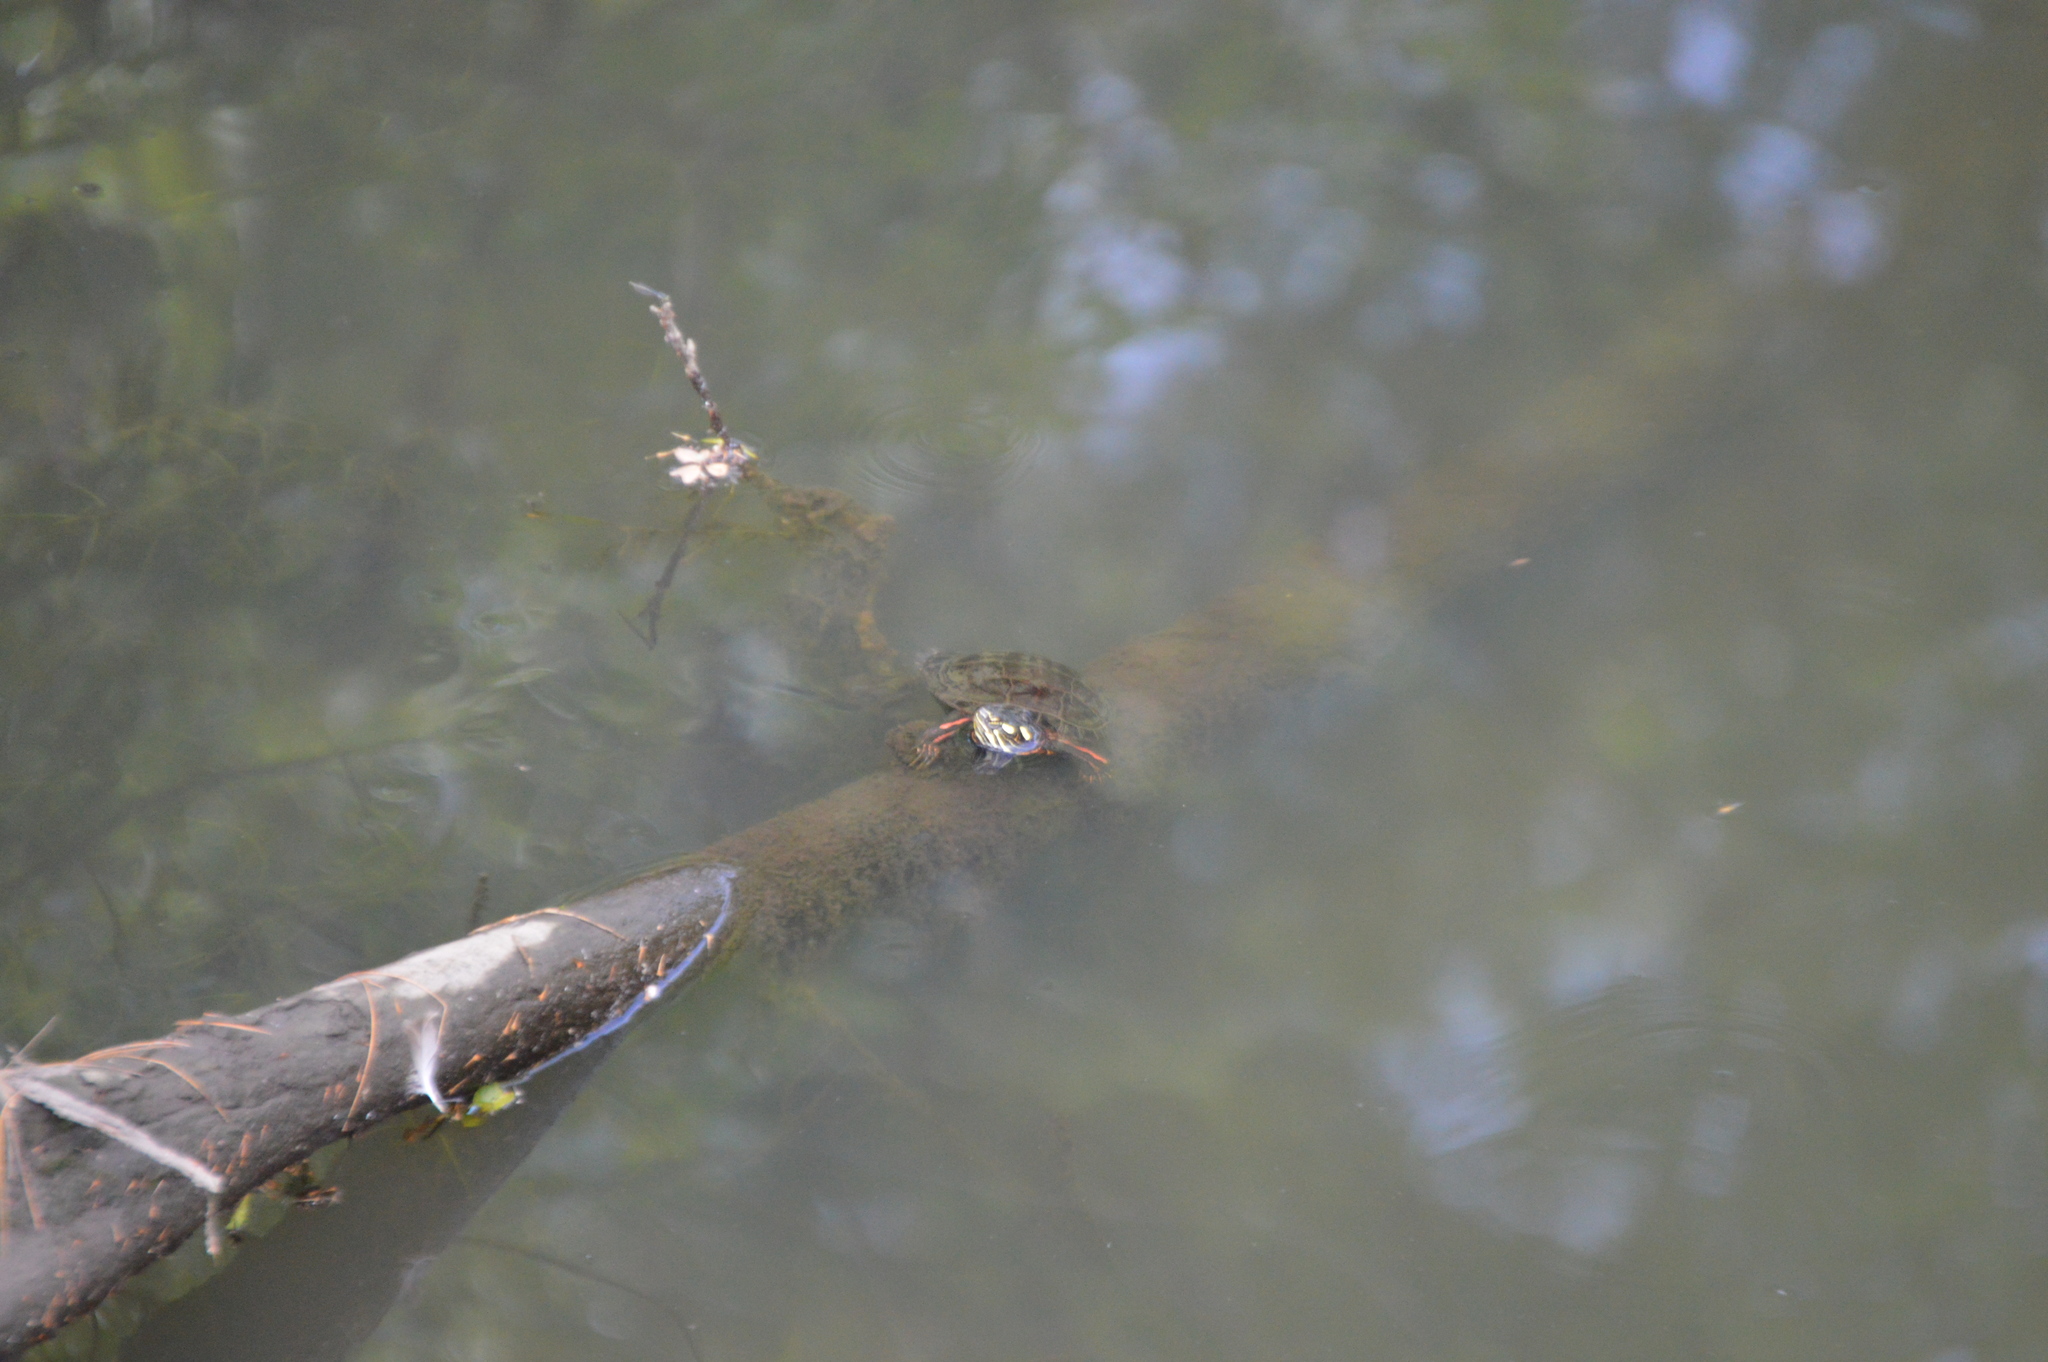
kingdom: Animalia
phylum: Chordata
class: Testudines
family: Emydidae
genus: Chrysemys
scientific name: Chrysemys picta
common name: Painted turtle
